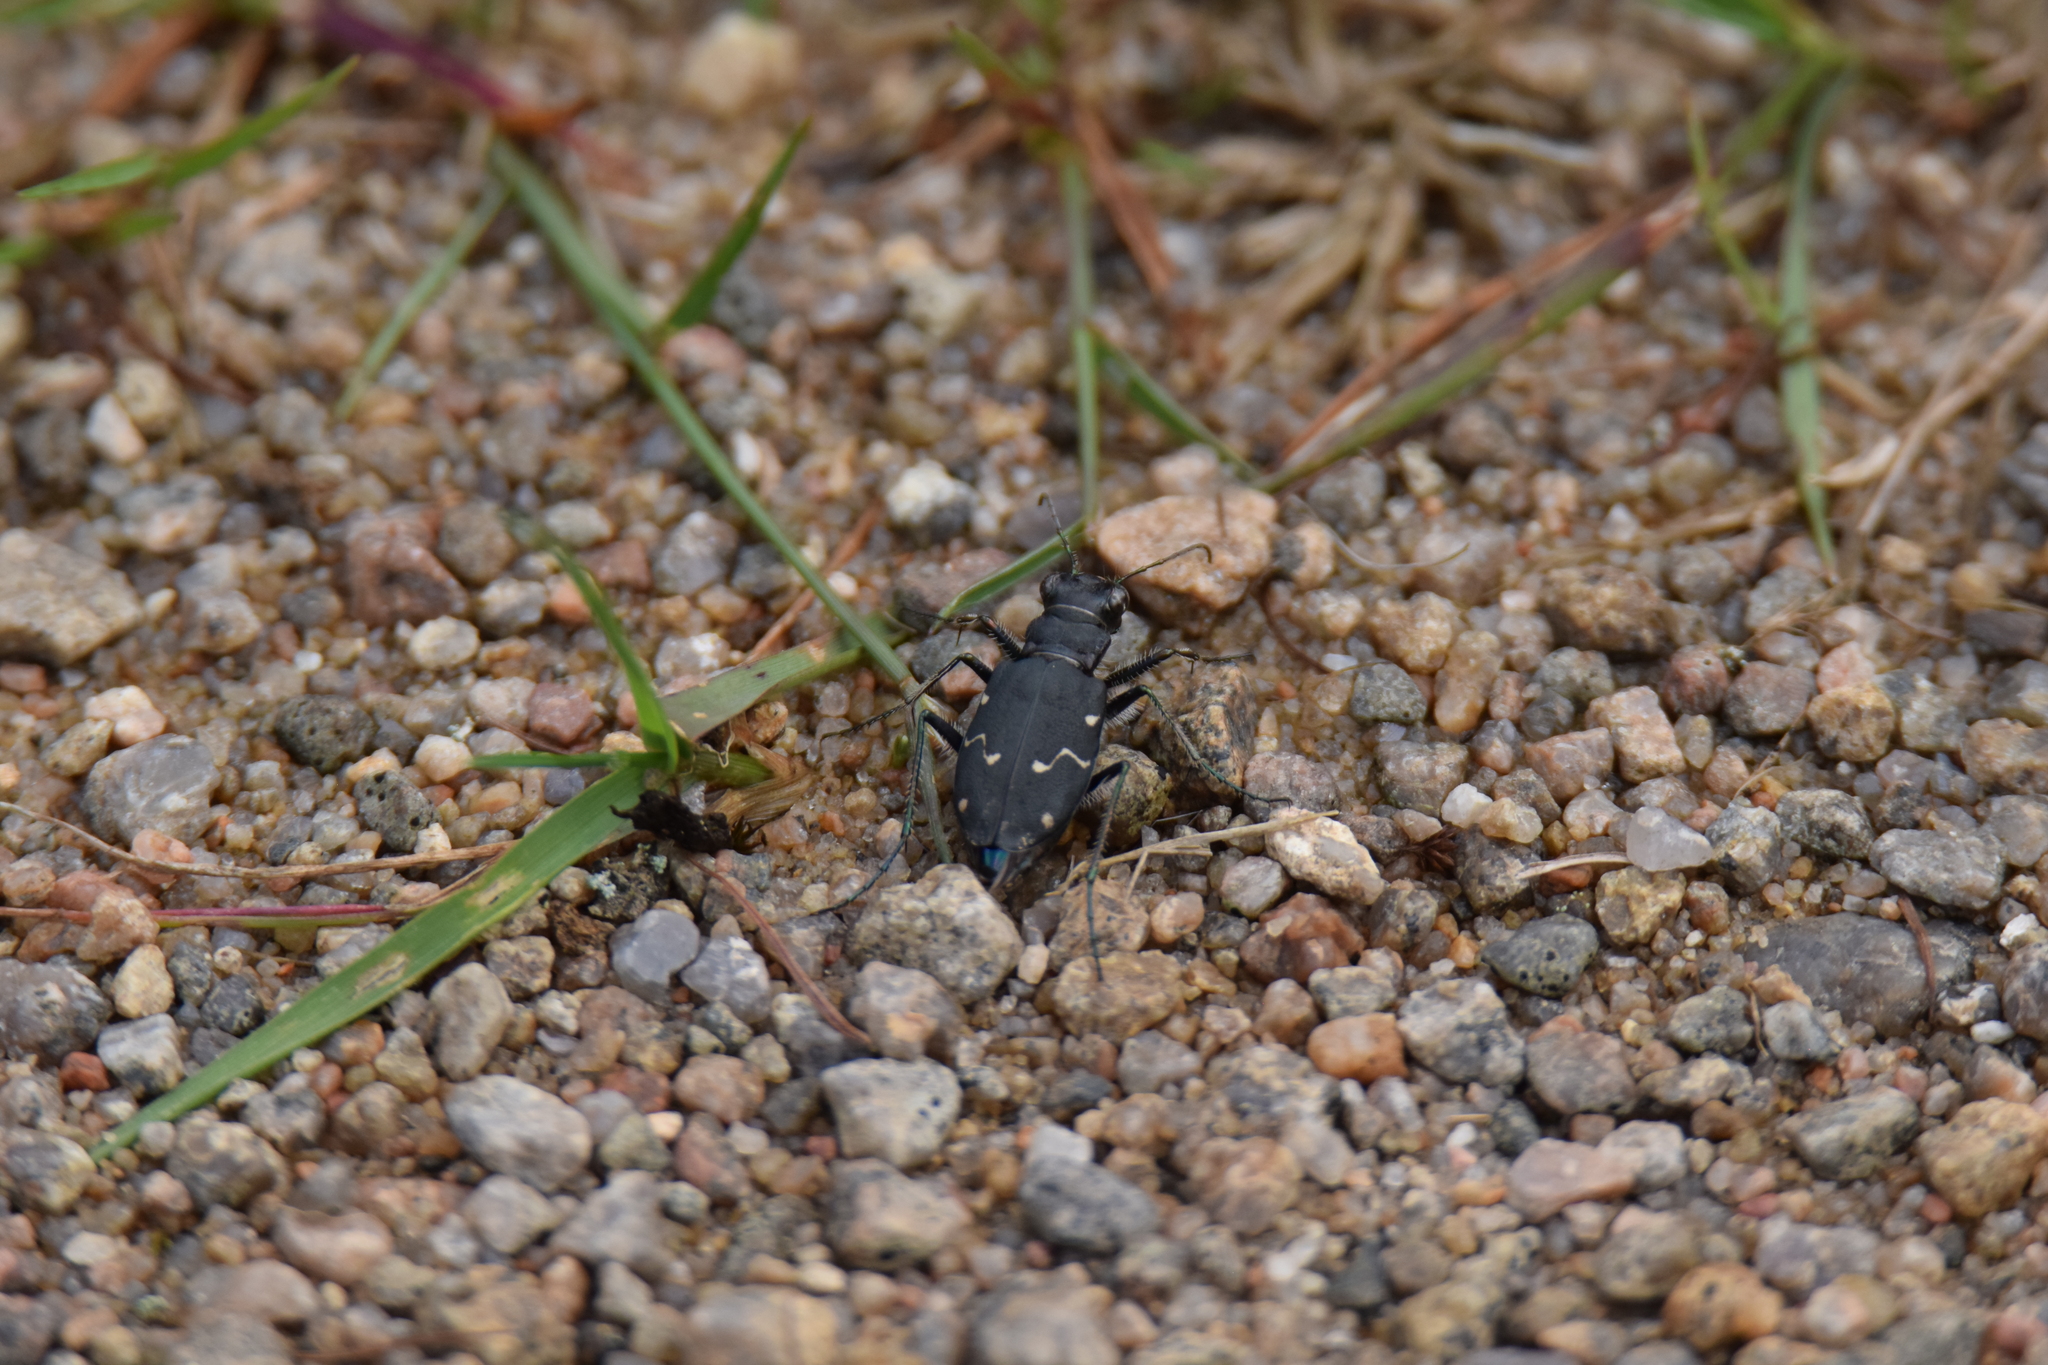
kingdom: Animalia
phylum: Arthropoda
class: Insecta
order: Coleoptera
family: Carabidae
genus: Cicindela
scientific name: Cicindela longilabris
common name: Boreal long-lipped tiger beetle
